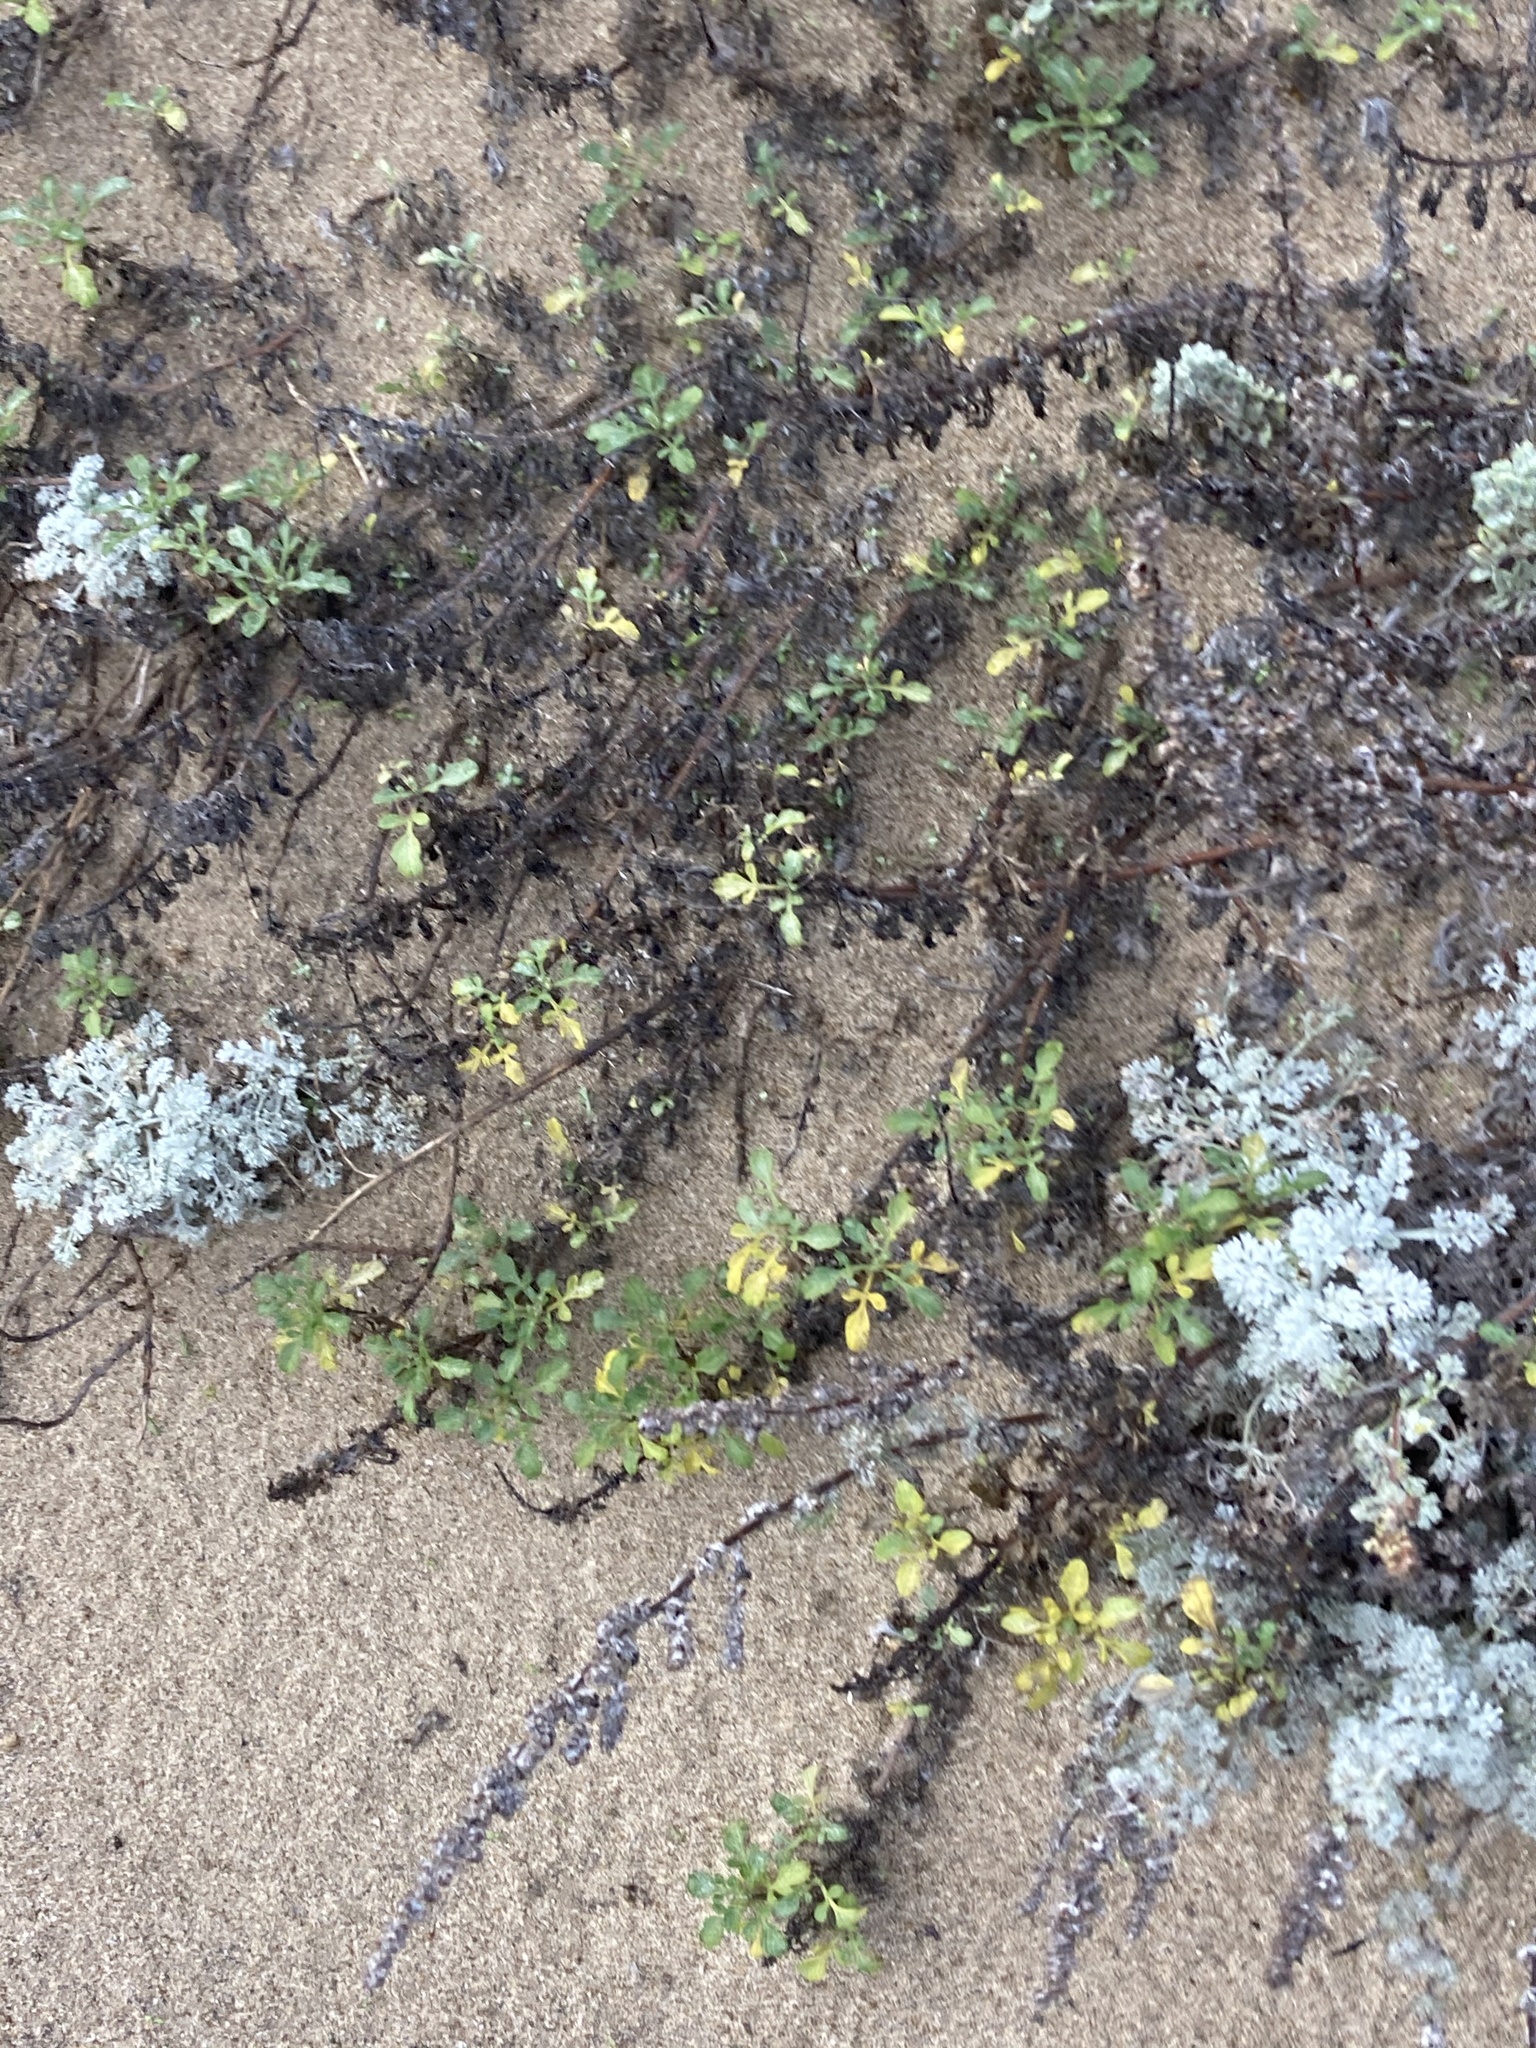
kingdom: Plantae
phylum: Tracheophyta
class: Magnoliopsida
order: Asterales
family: Asteraceae
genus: Ambrosia
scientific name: Ambrosia chamissonis
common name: Beachbur
